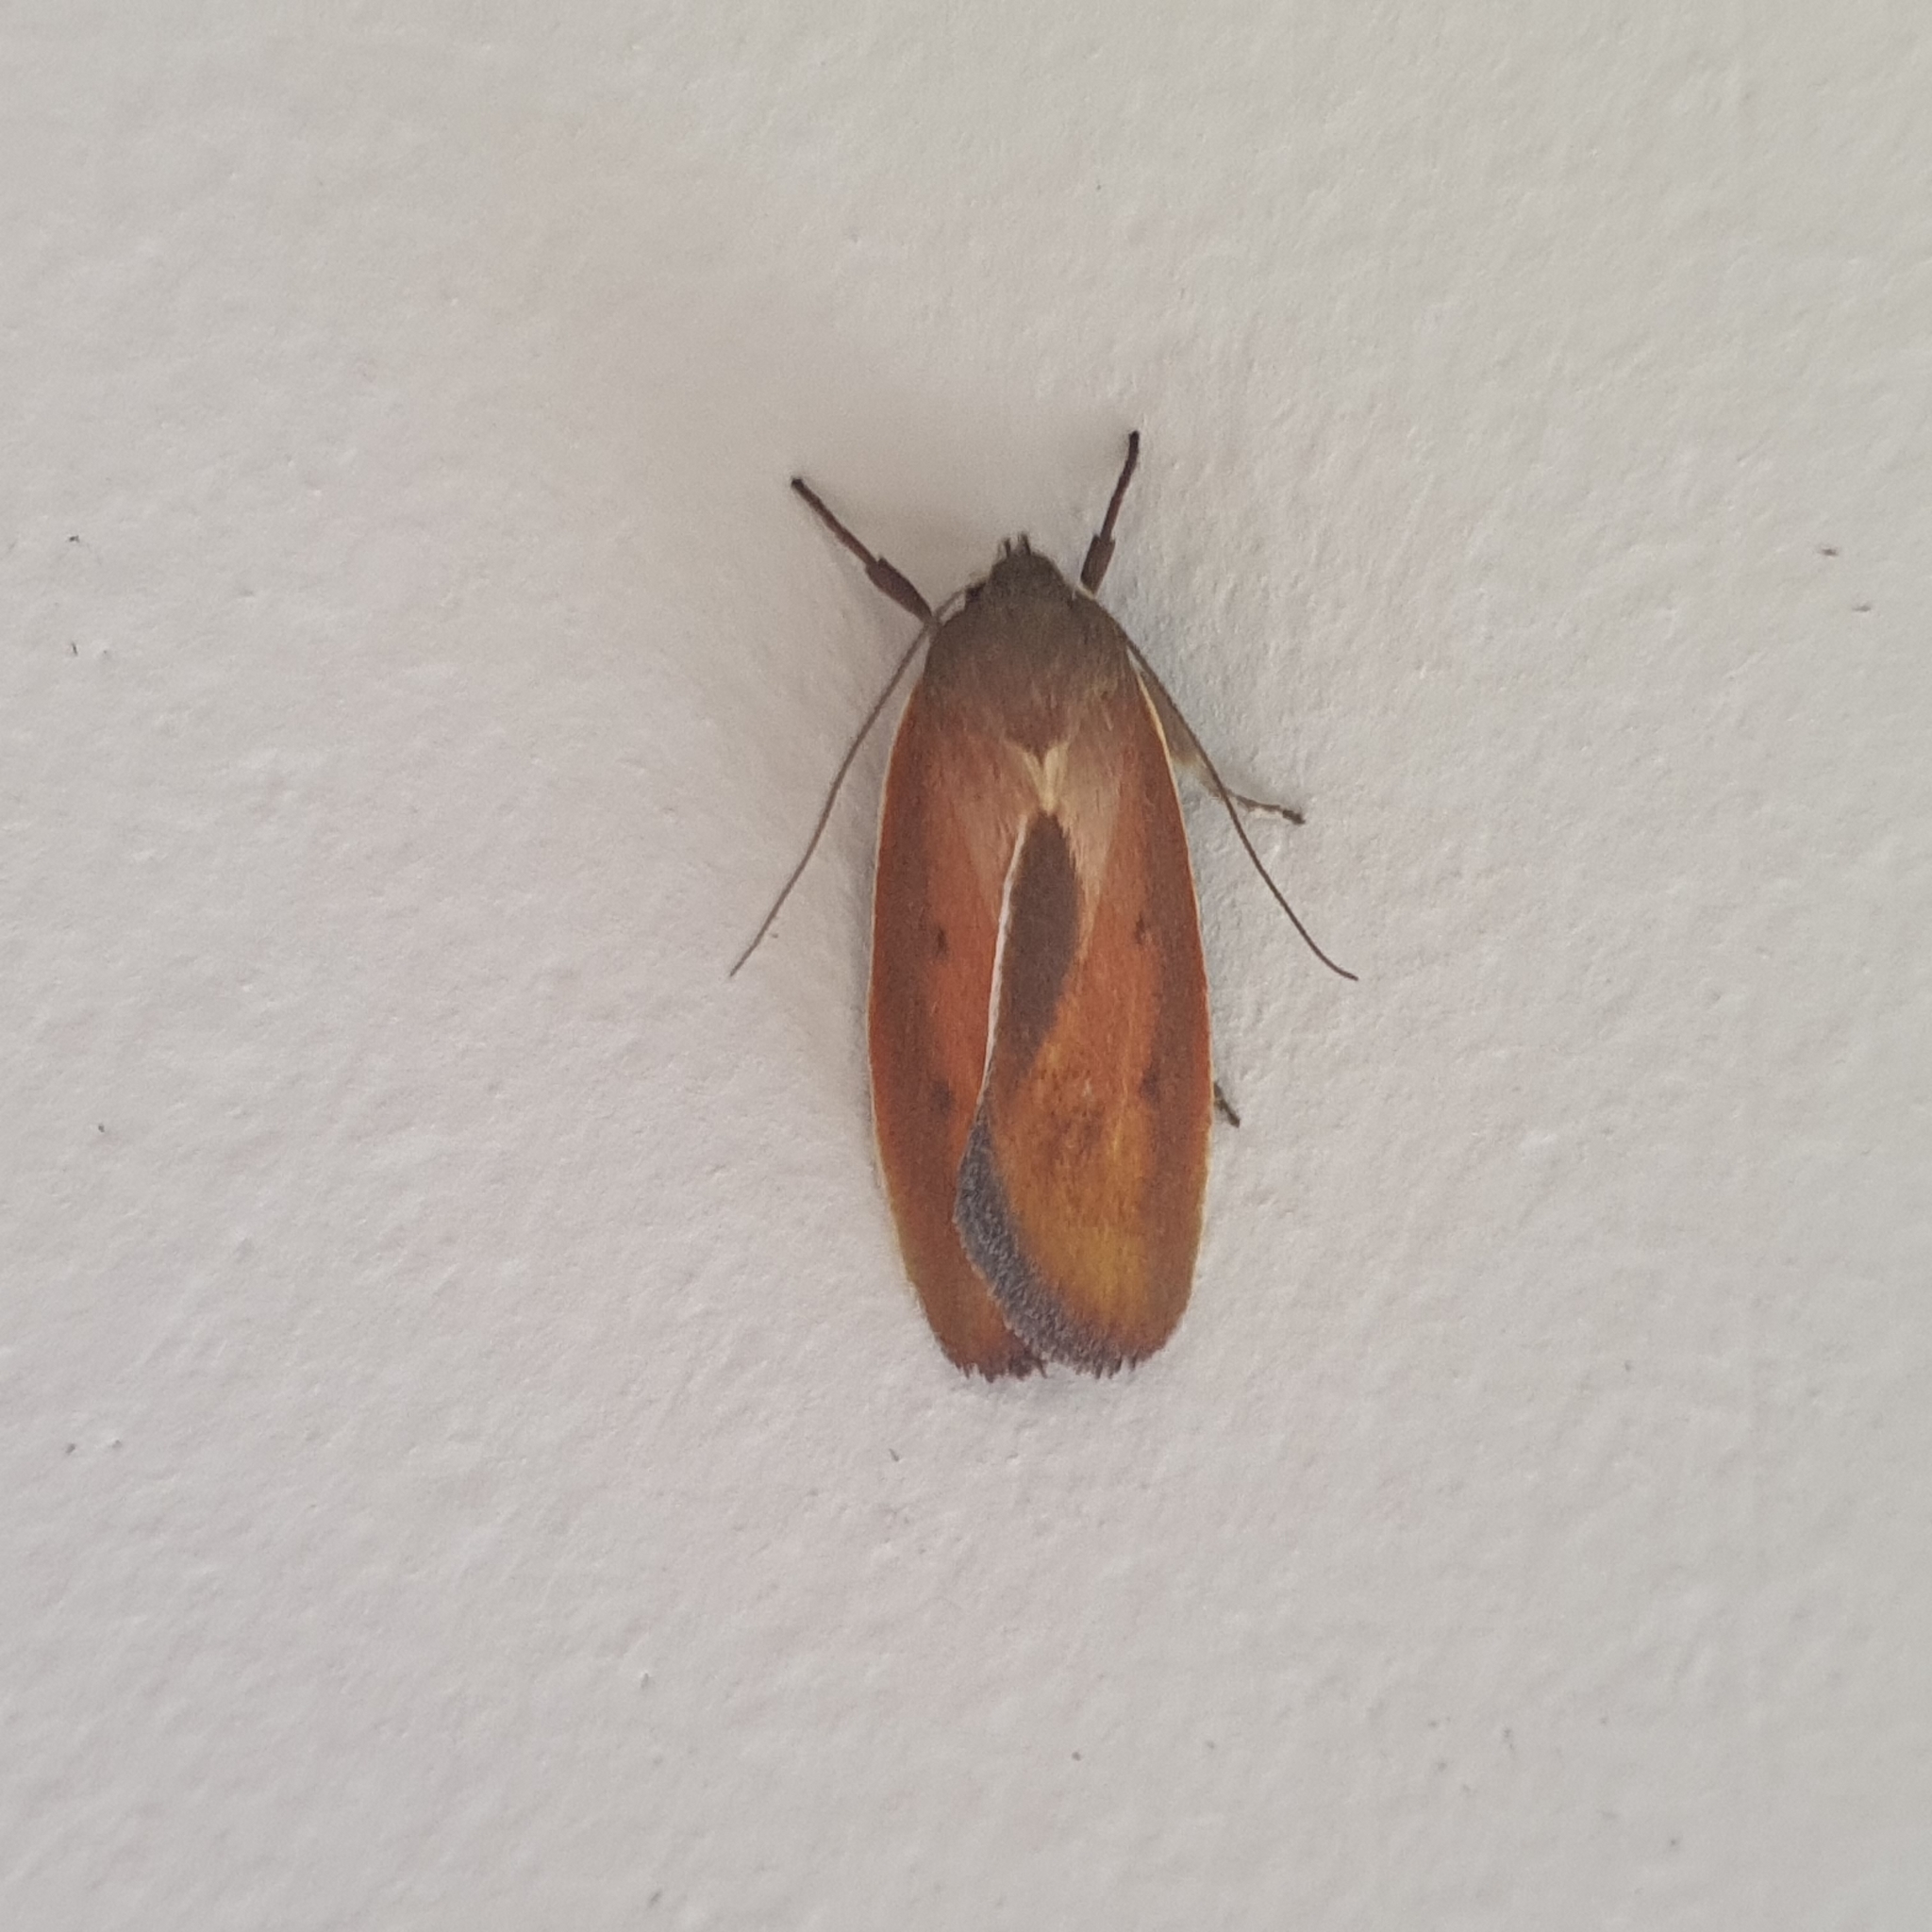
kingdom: Animalia
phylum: Arthropoda
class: Insecta
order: Lepidoptera
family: Oecophoridae
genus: Ptyoptila
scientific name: Ptyoptila matutinella
